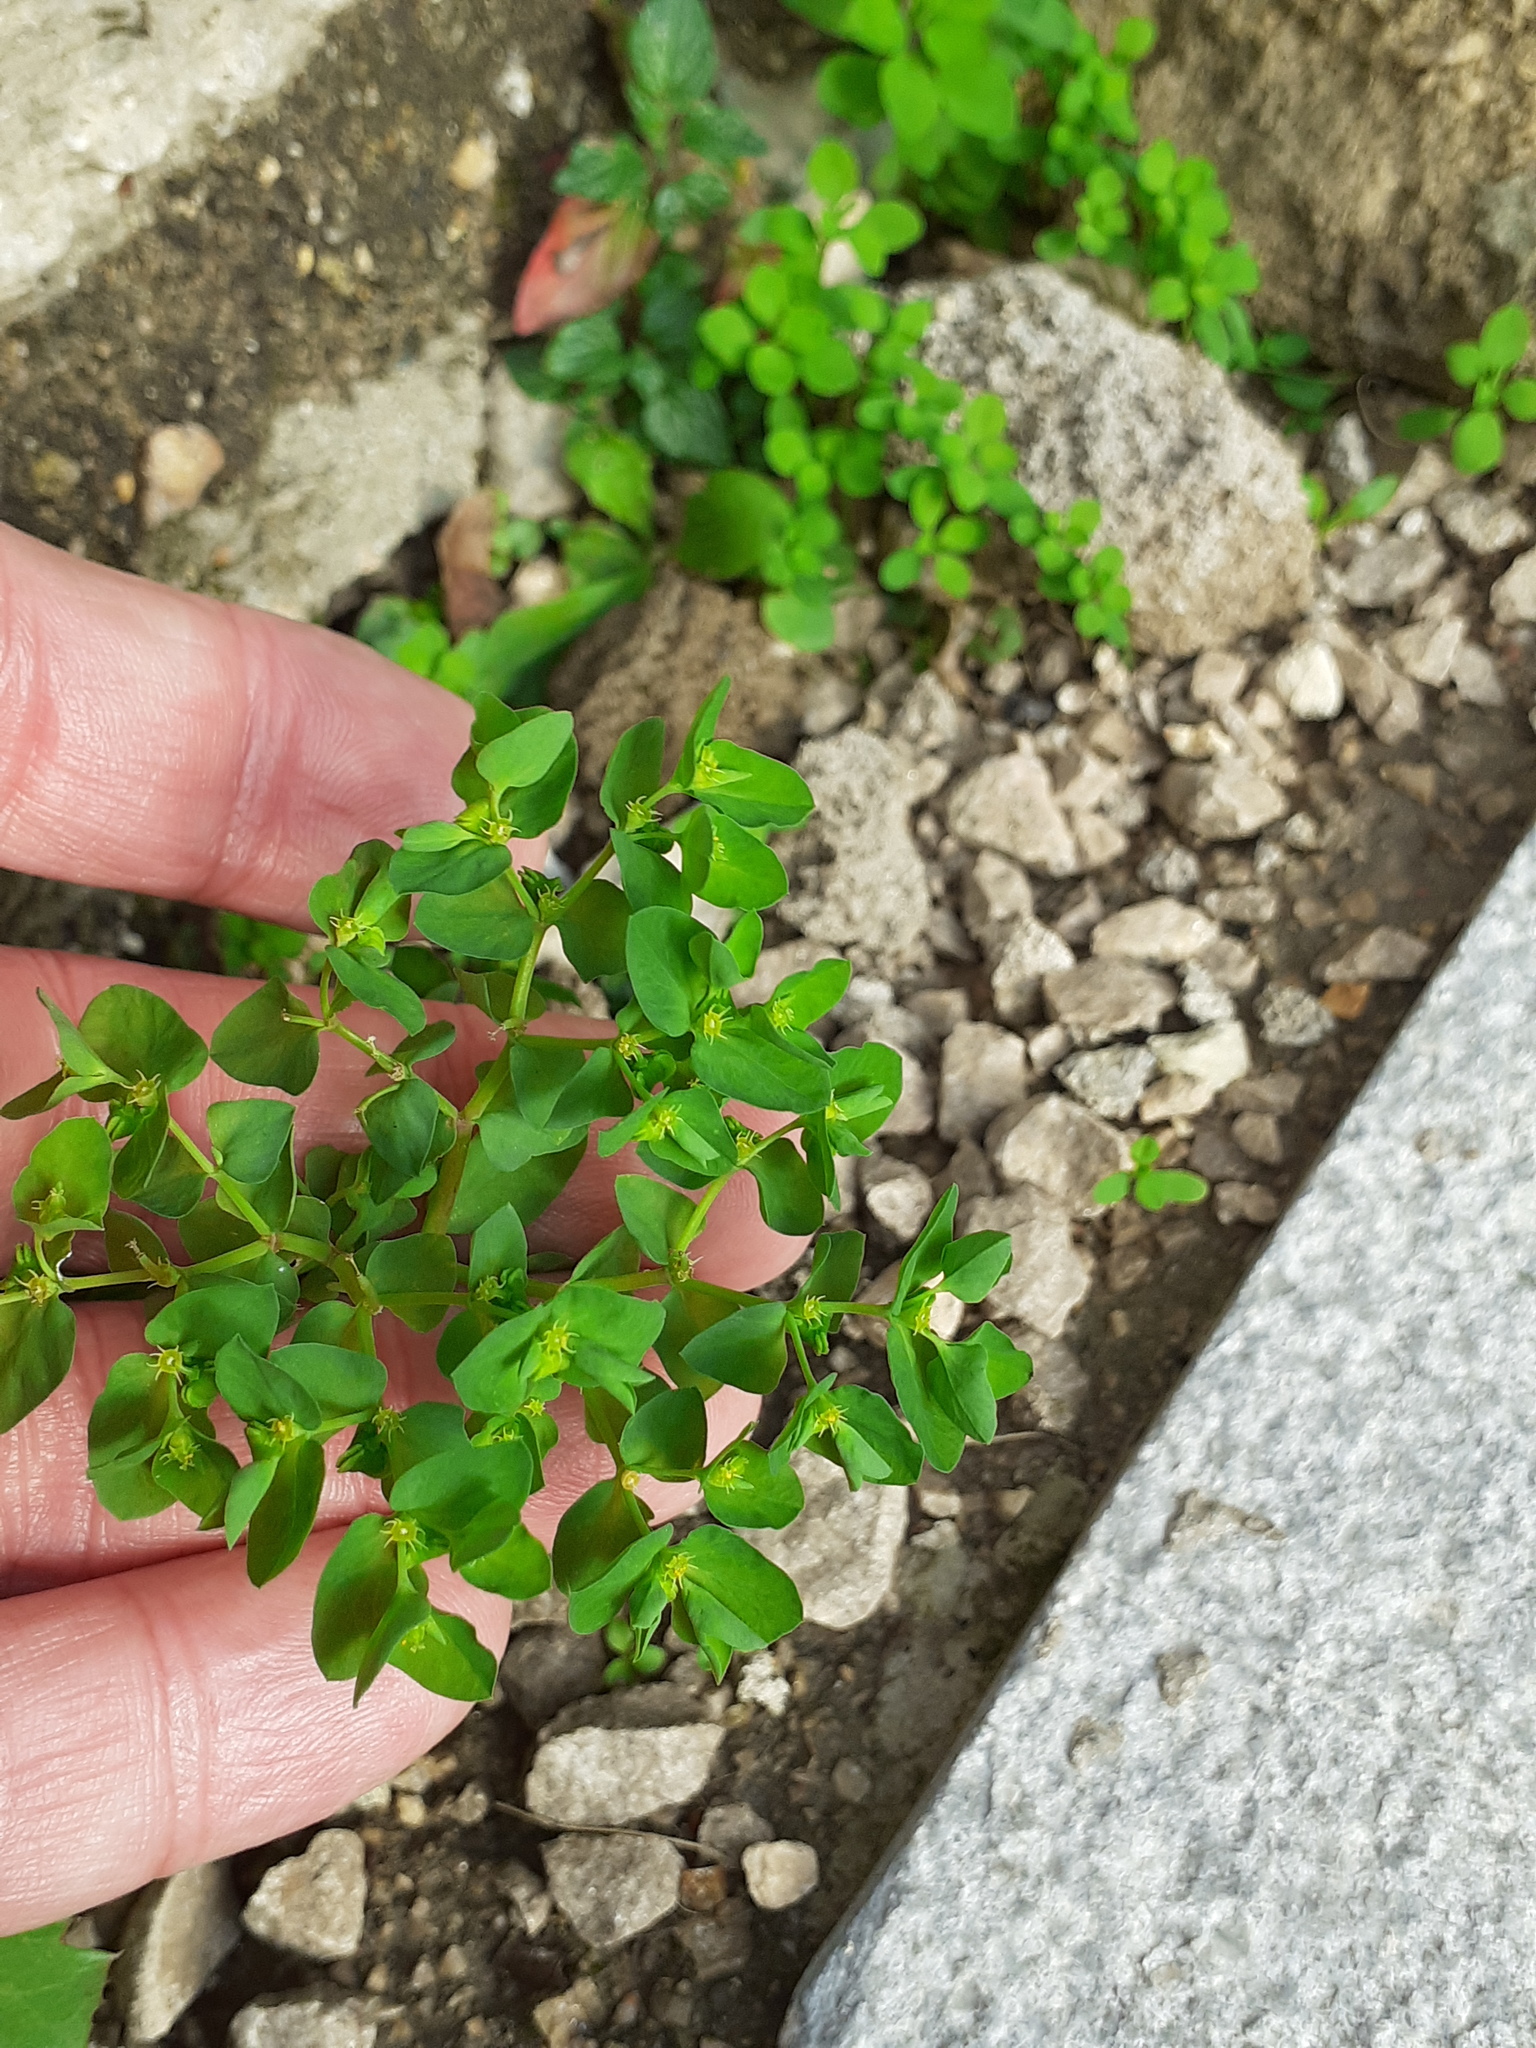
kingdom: Plantae
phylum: Tracheophyta
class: Magnoliopsida
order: Malpighiales
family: Euphorbiaceae
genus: Euphorbia
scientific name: Euphorbia peplus
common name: Petty spurge
